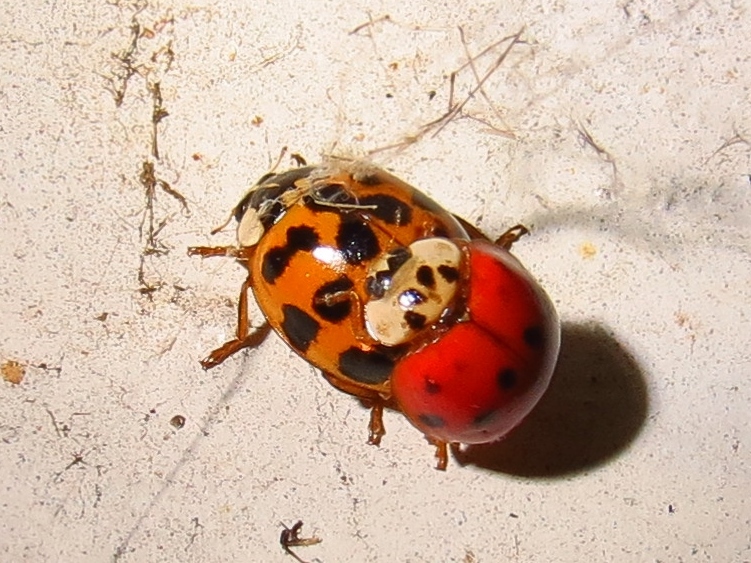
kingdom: Animalia
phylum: Arthropoda
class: Insecta
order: Coleoptera
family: Coccinellidae
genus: Harmonia
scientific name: Harmonia axyridis
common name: Harlequin ladybird
